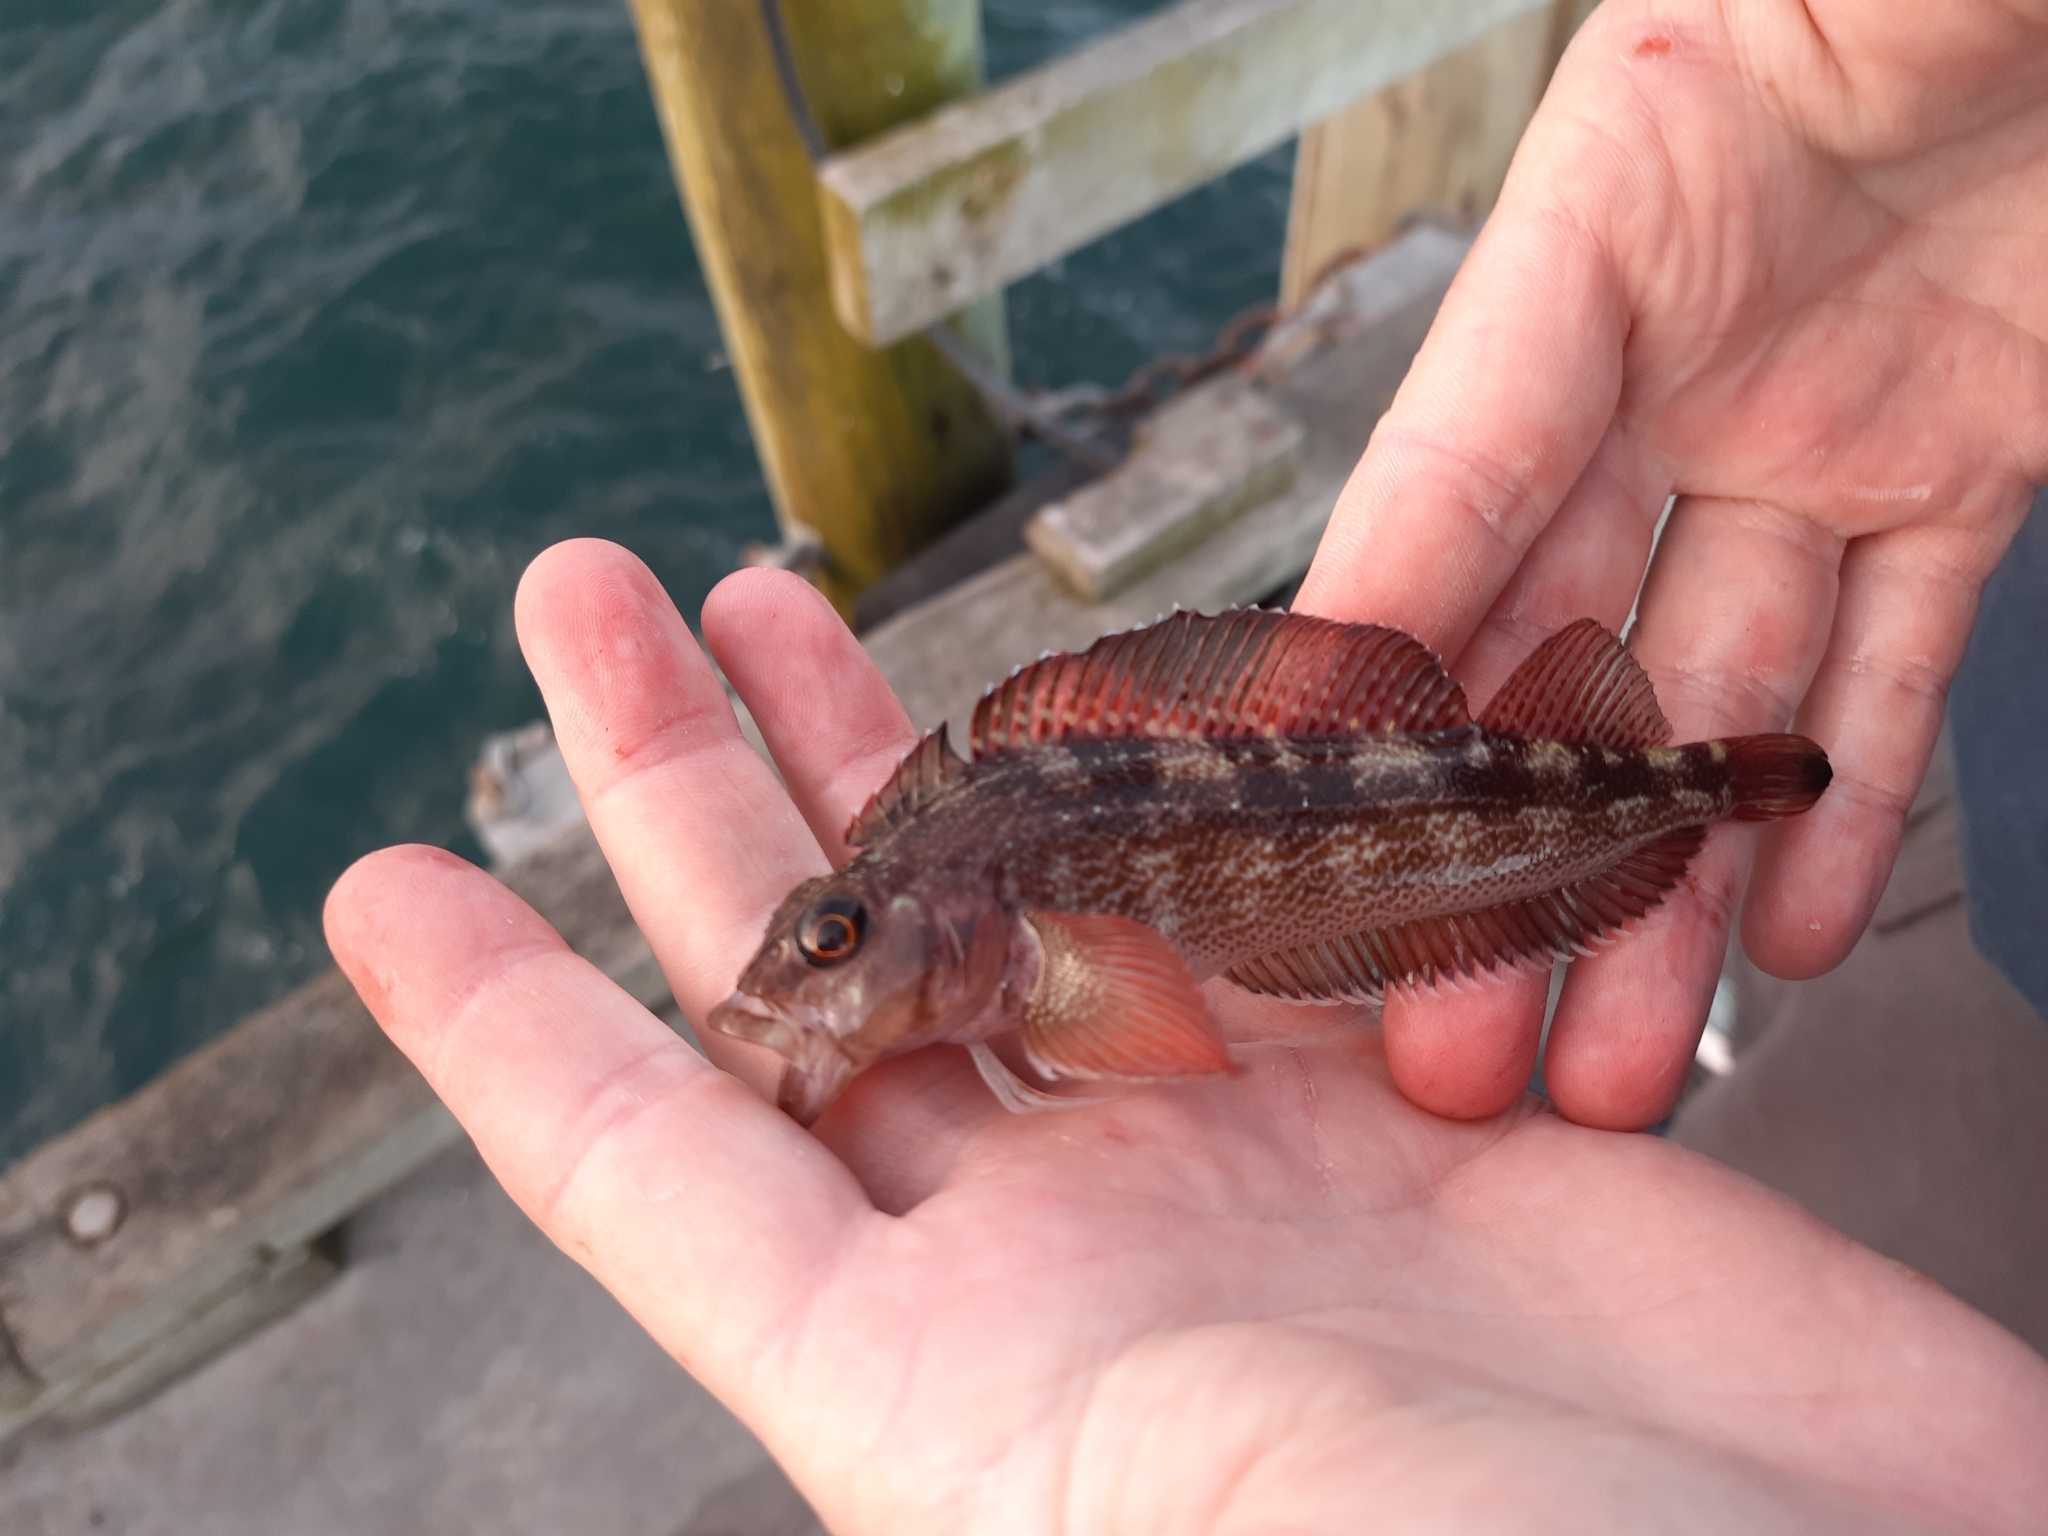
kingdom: Animalia
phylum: Chordata
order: Perciformes
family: Tripterygiidae
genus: Forsterygion
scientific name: Forsterygion varium
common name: Variable triplefin
